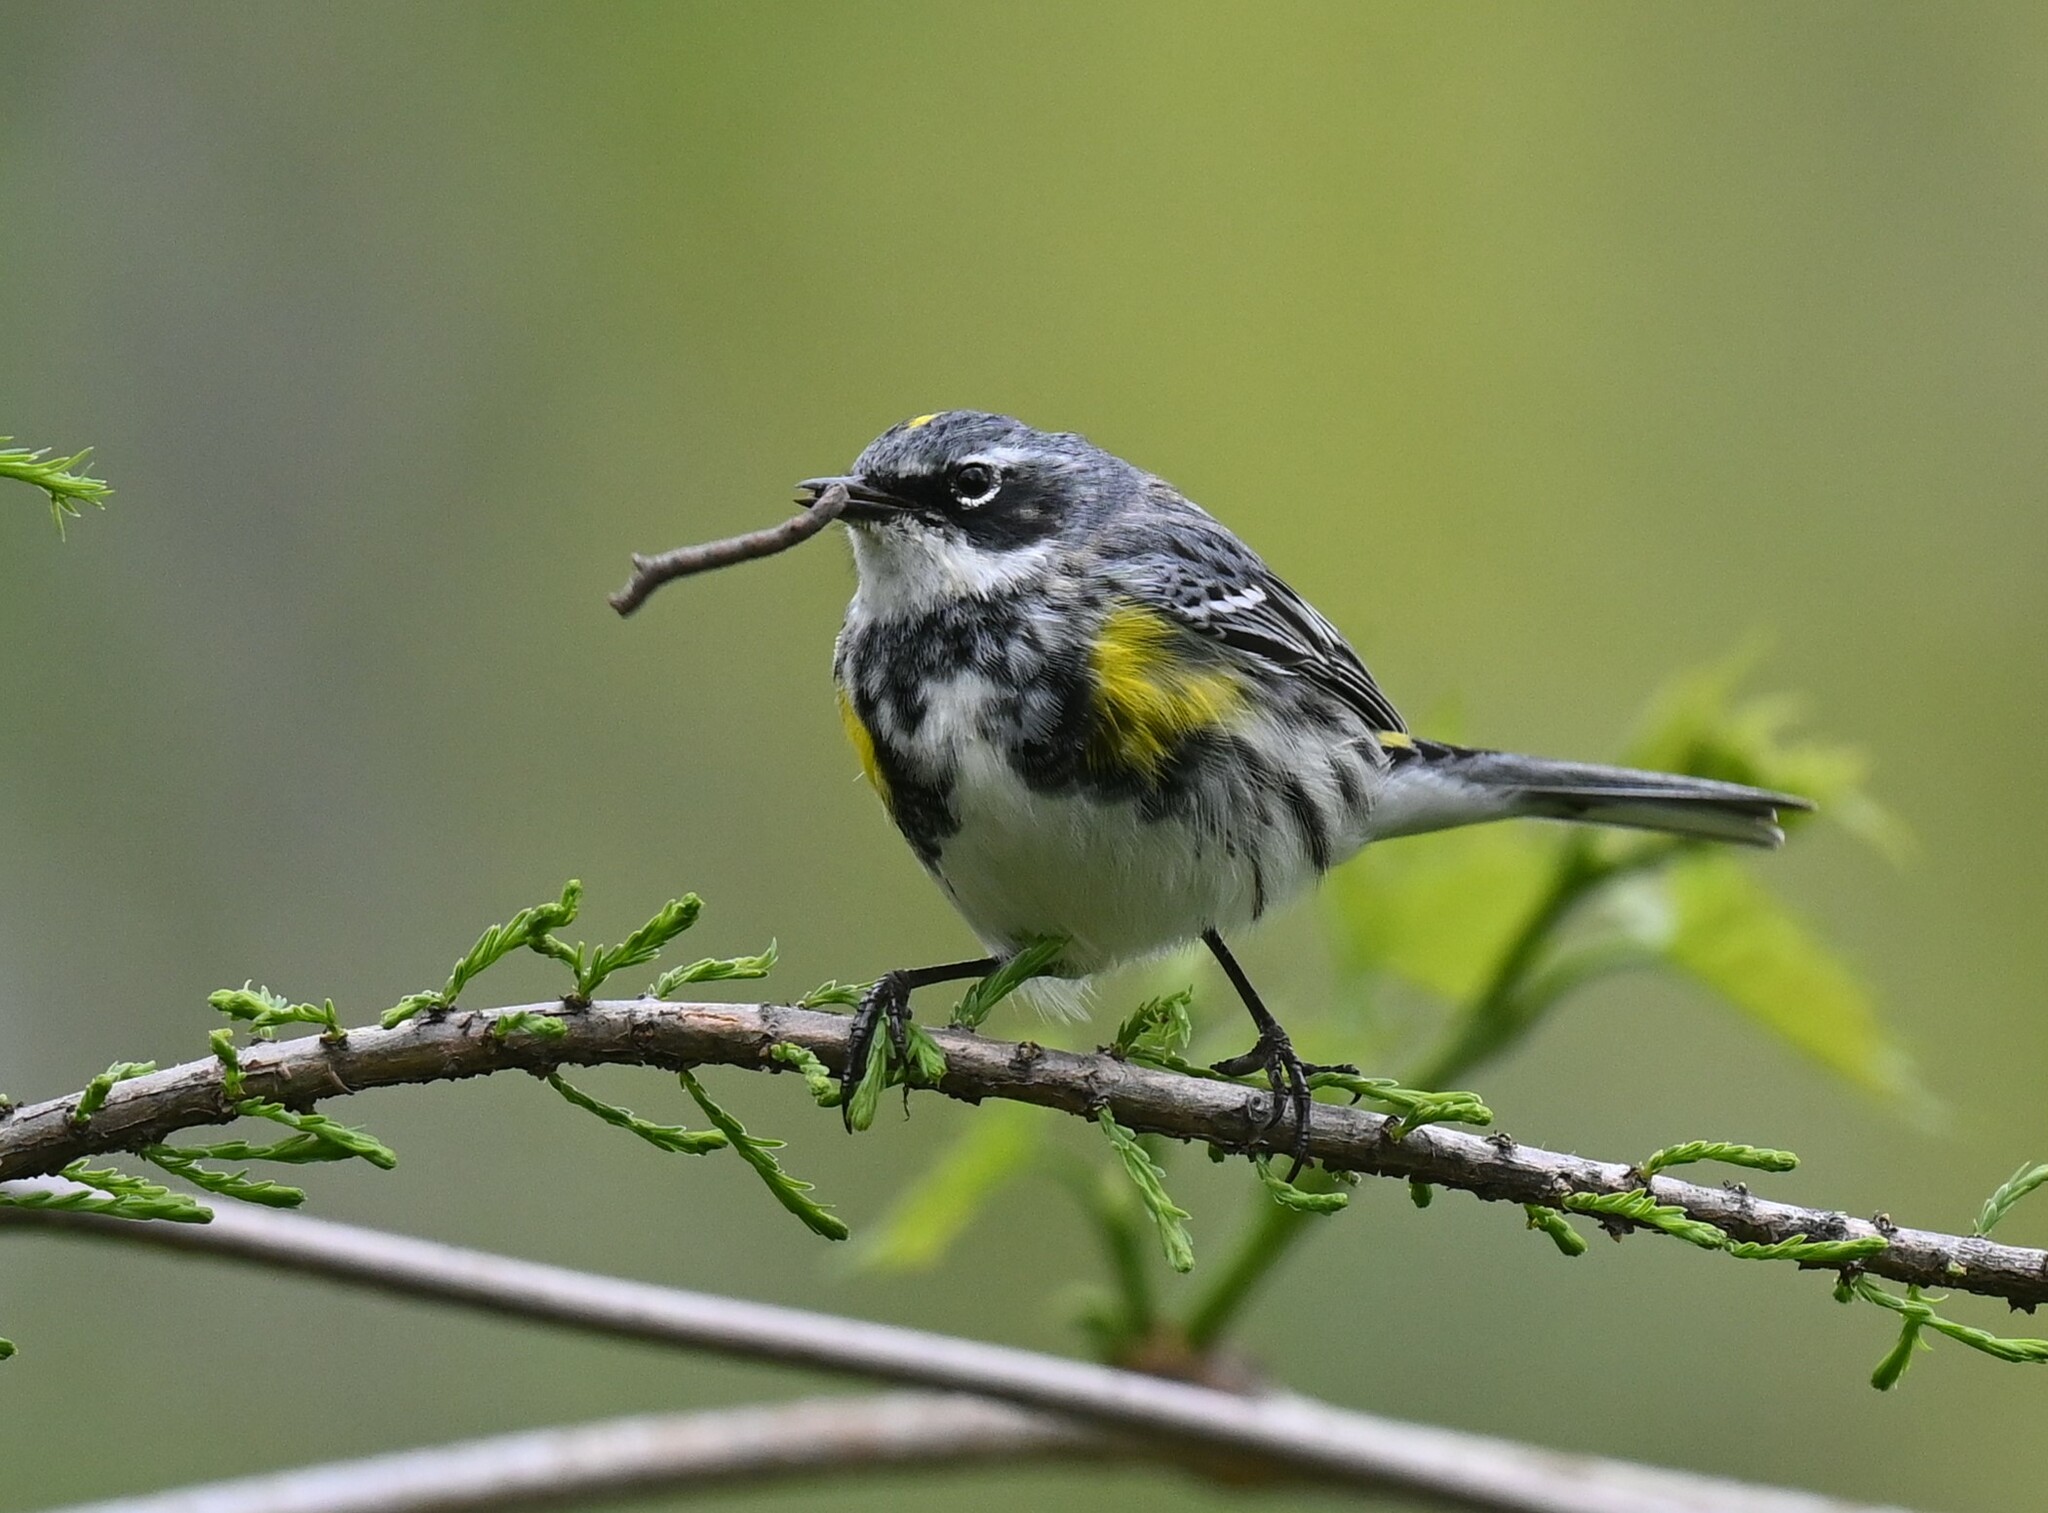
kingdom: Animalia
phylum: Chordata
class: Aves
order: Passeriformes
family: Parulidae
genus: Setophaga
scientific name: Setophaga coronata
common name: Myrtle warbler
